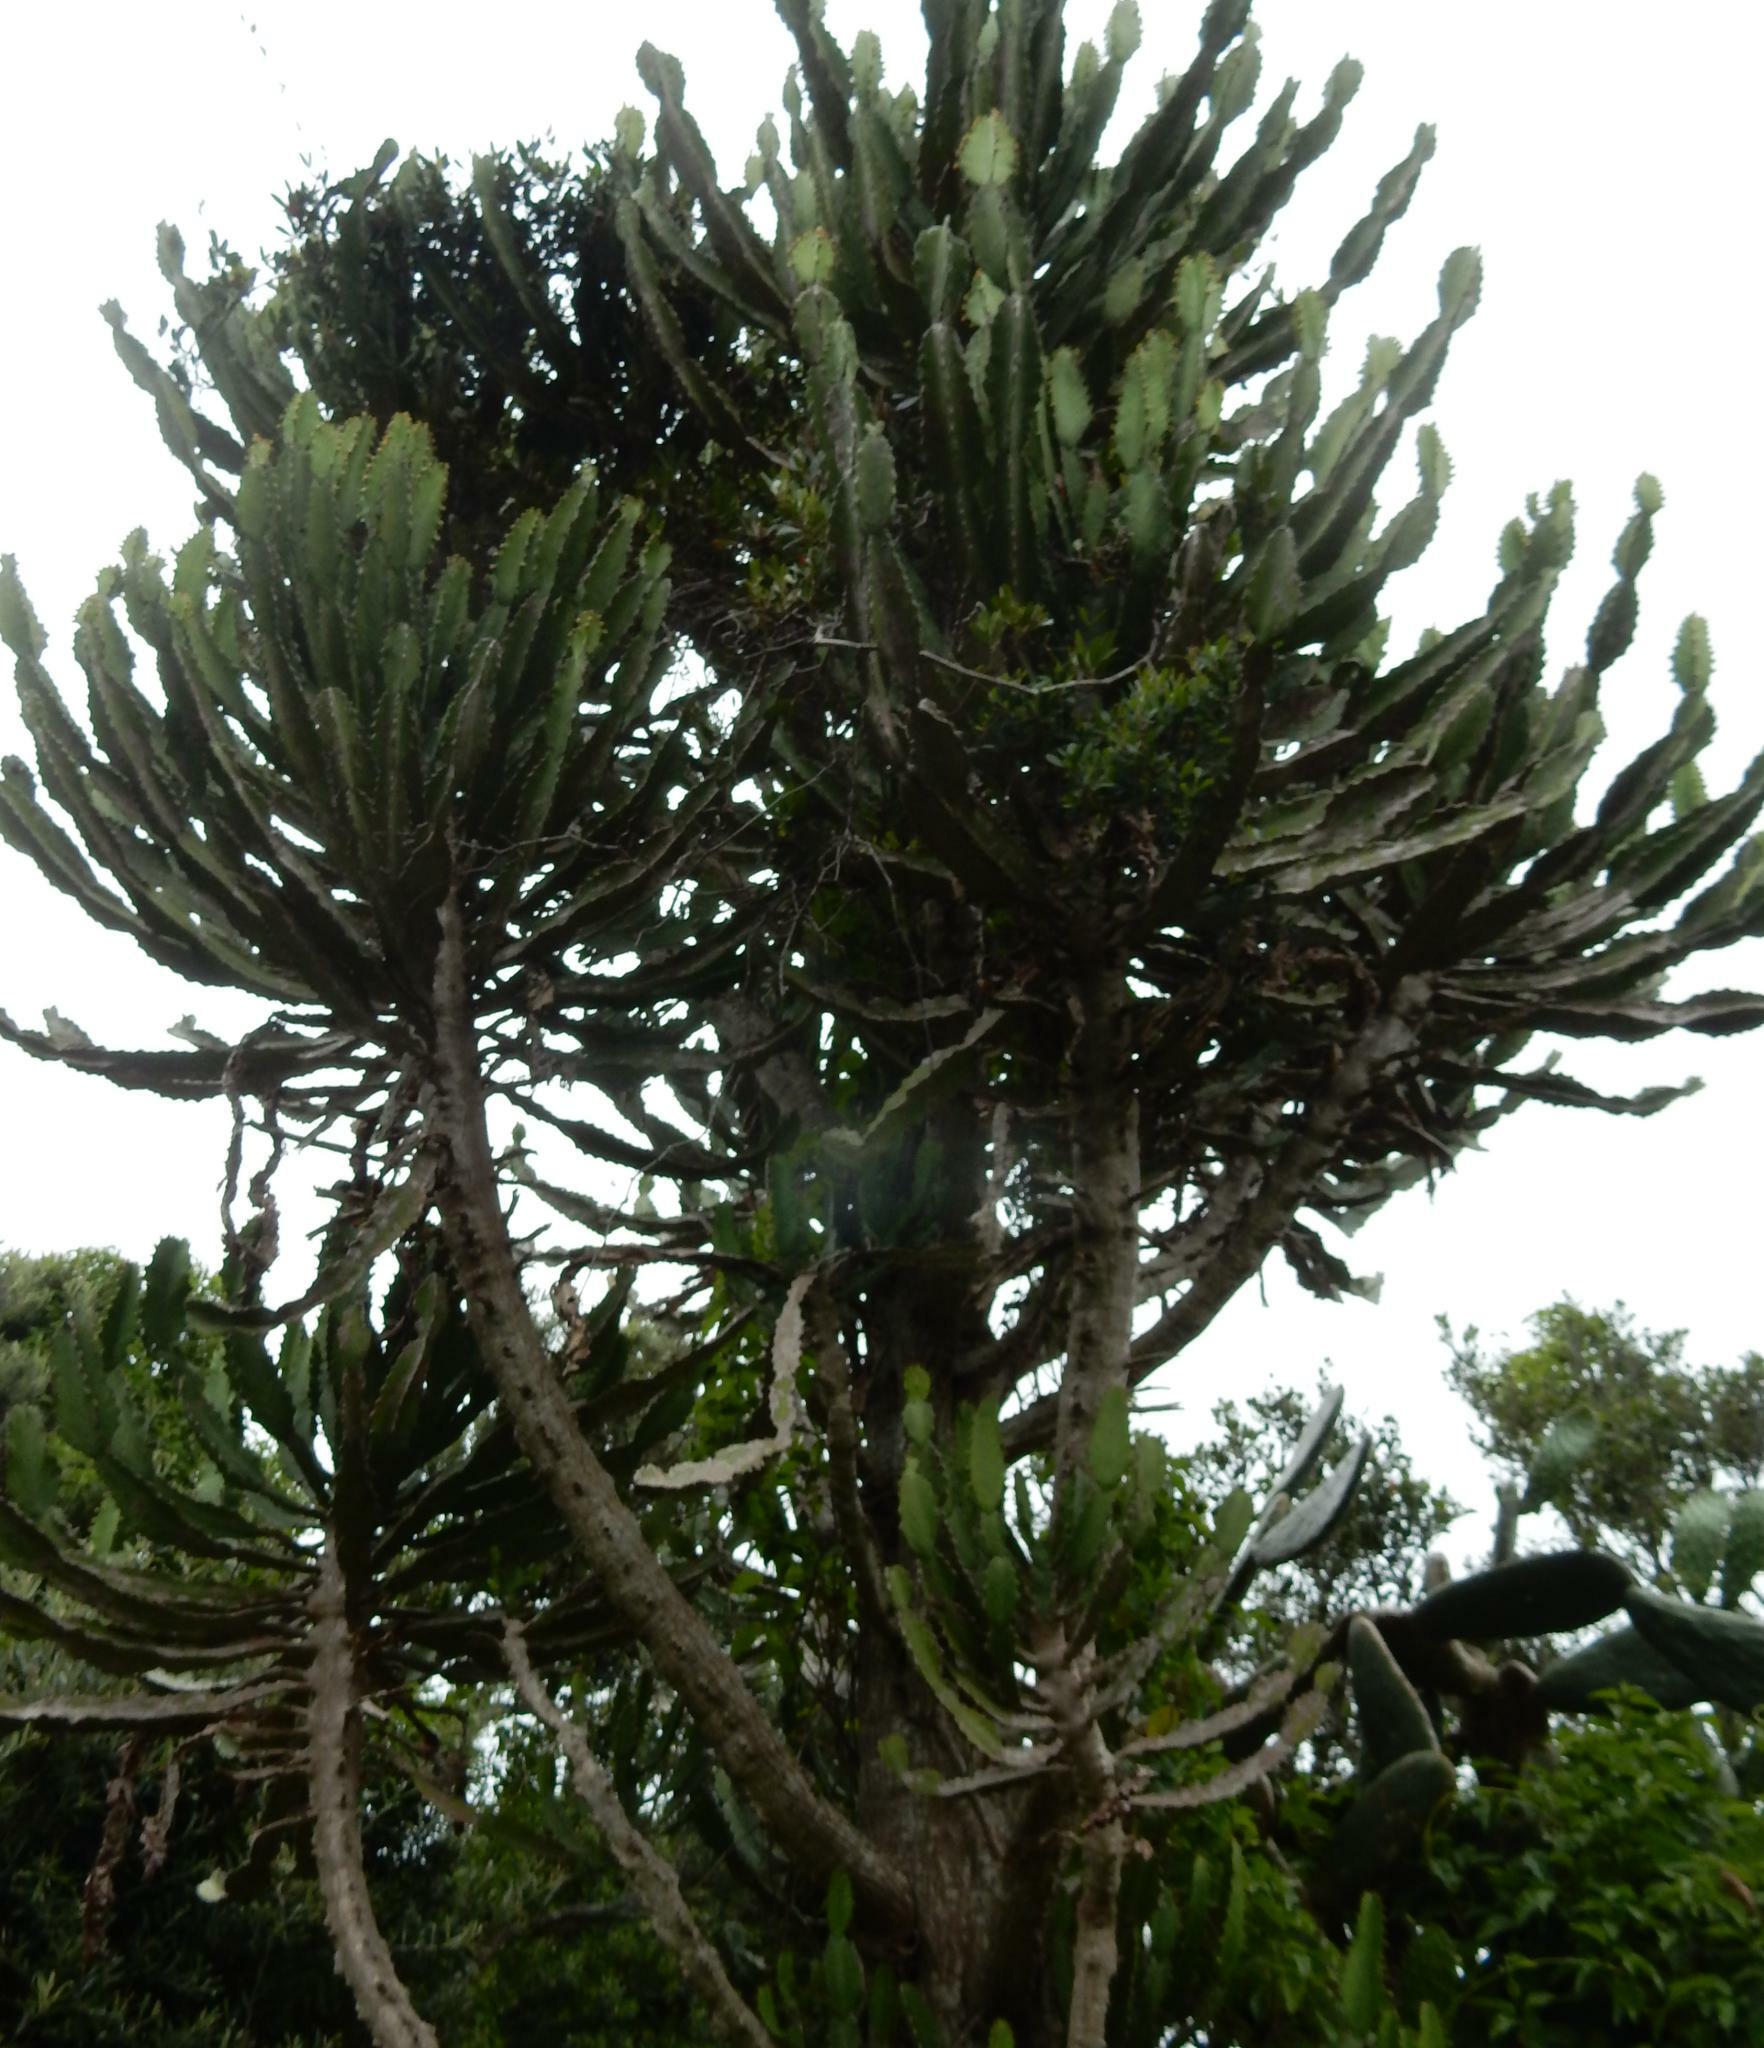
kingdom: Plantae
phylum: Tracheophyta
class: Magnoliopsida
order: Malpighiales
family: Euphorbiaceae
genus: Euphorbia
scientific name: Euphorbia triangularis
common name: Chandelier tree
